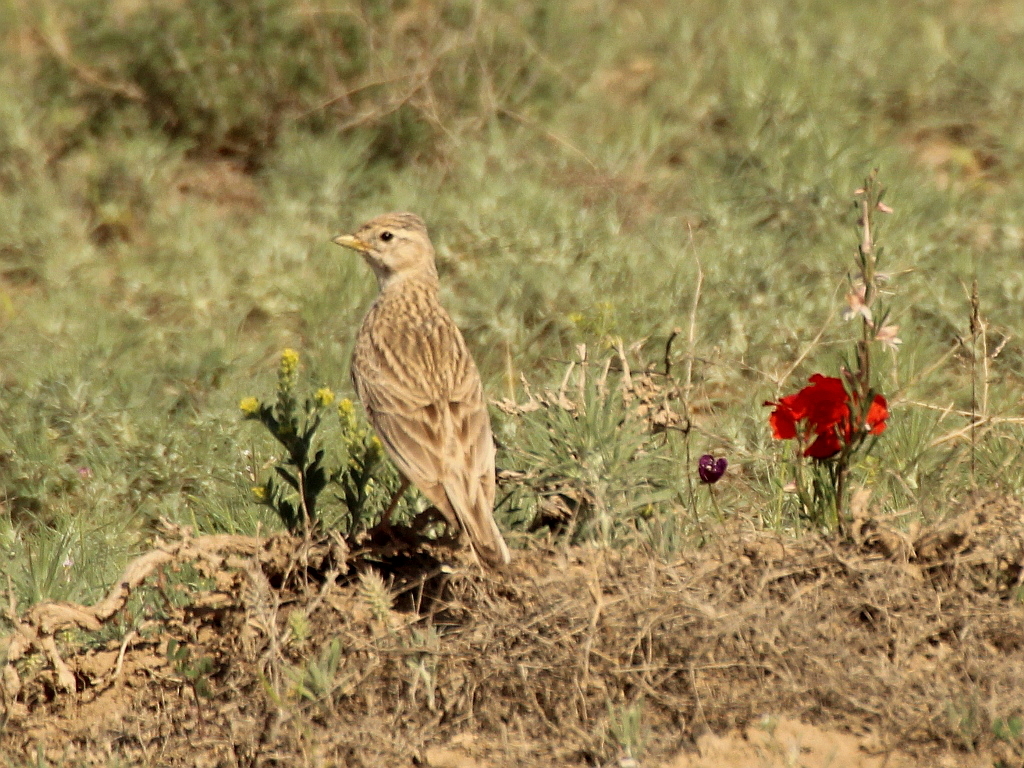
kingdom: Animalia
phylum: Chordata
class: Aves
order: Passeriformes
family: Alaudidae
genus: Calandrella
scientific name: Calandrella rufescens
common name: Lesser short-toed lark
